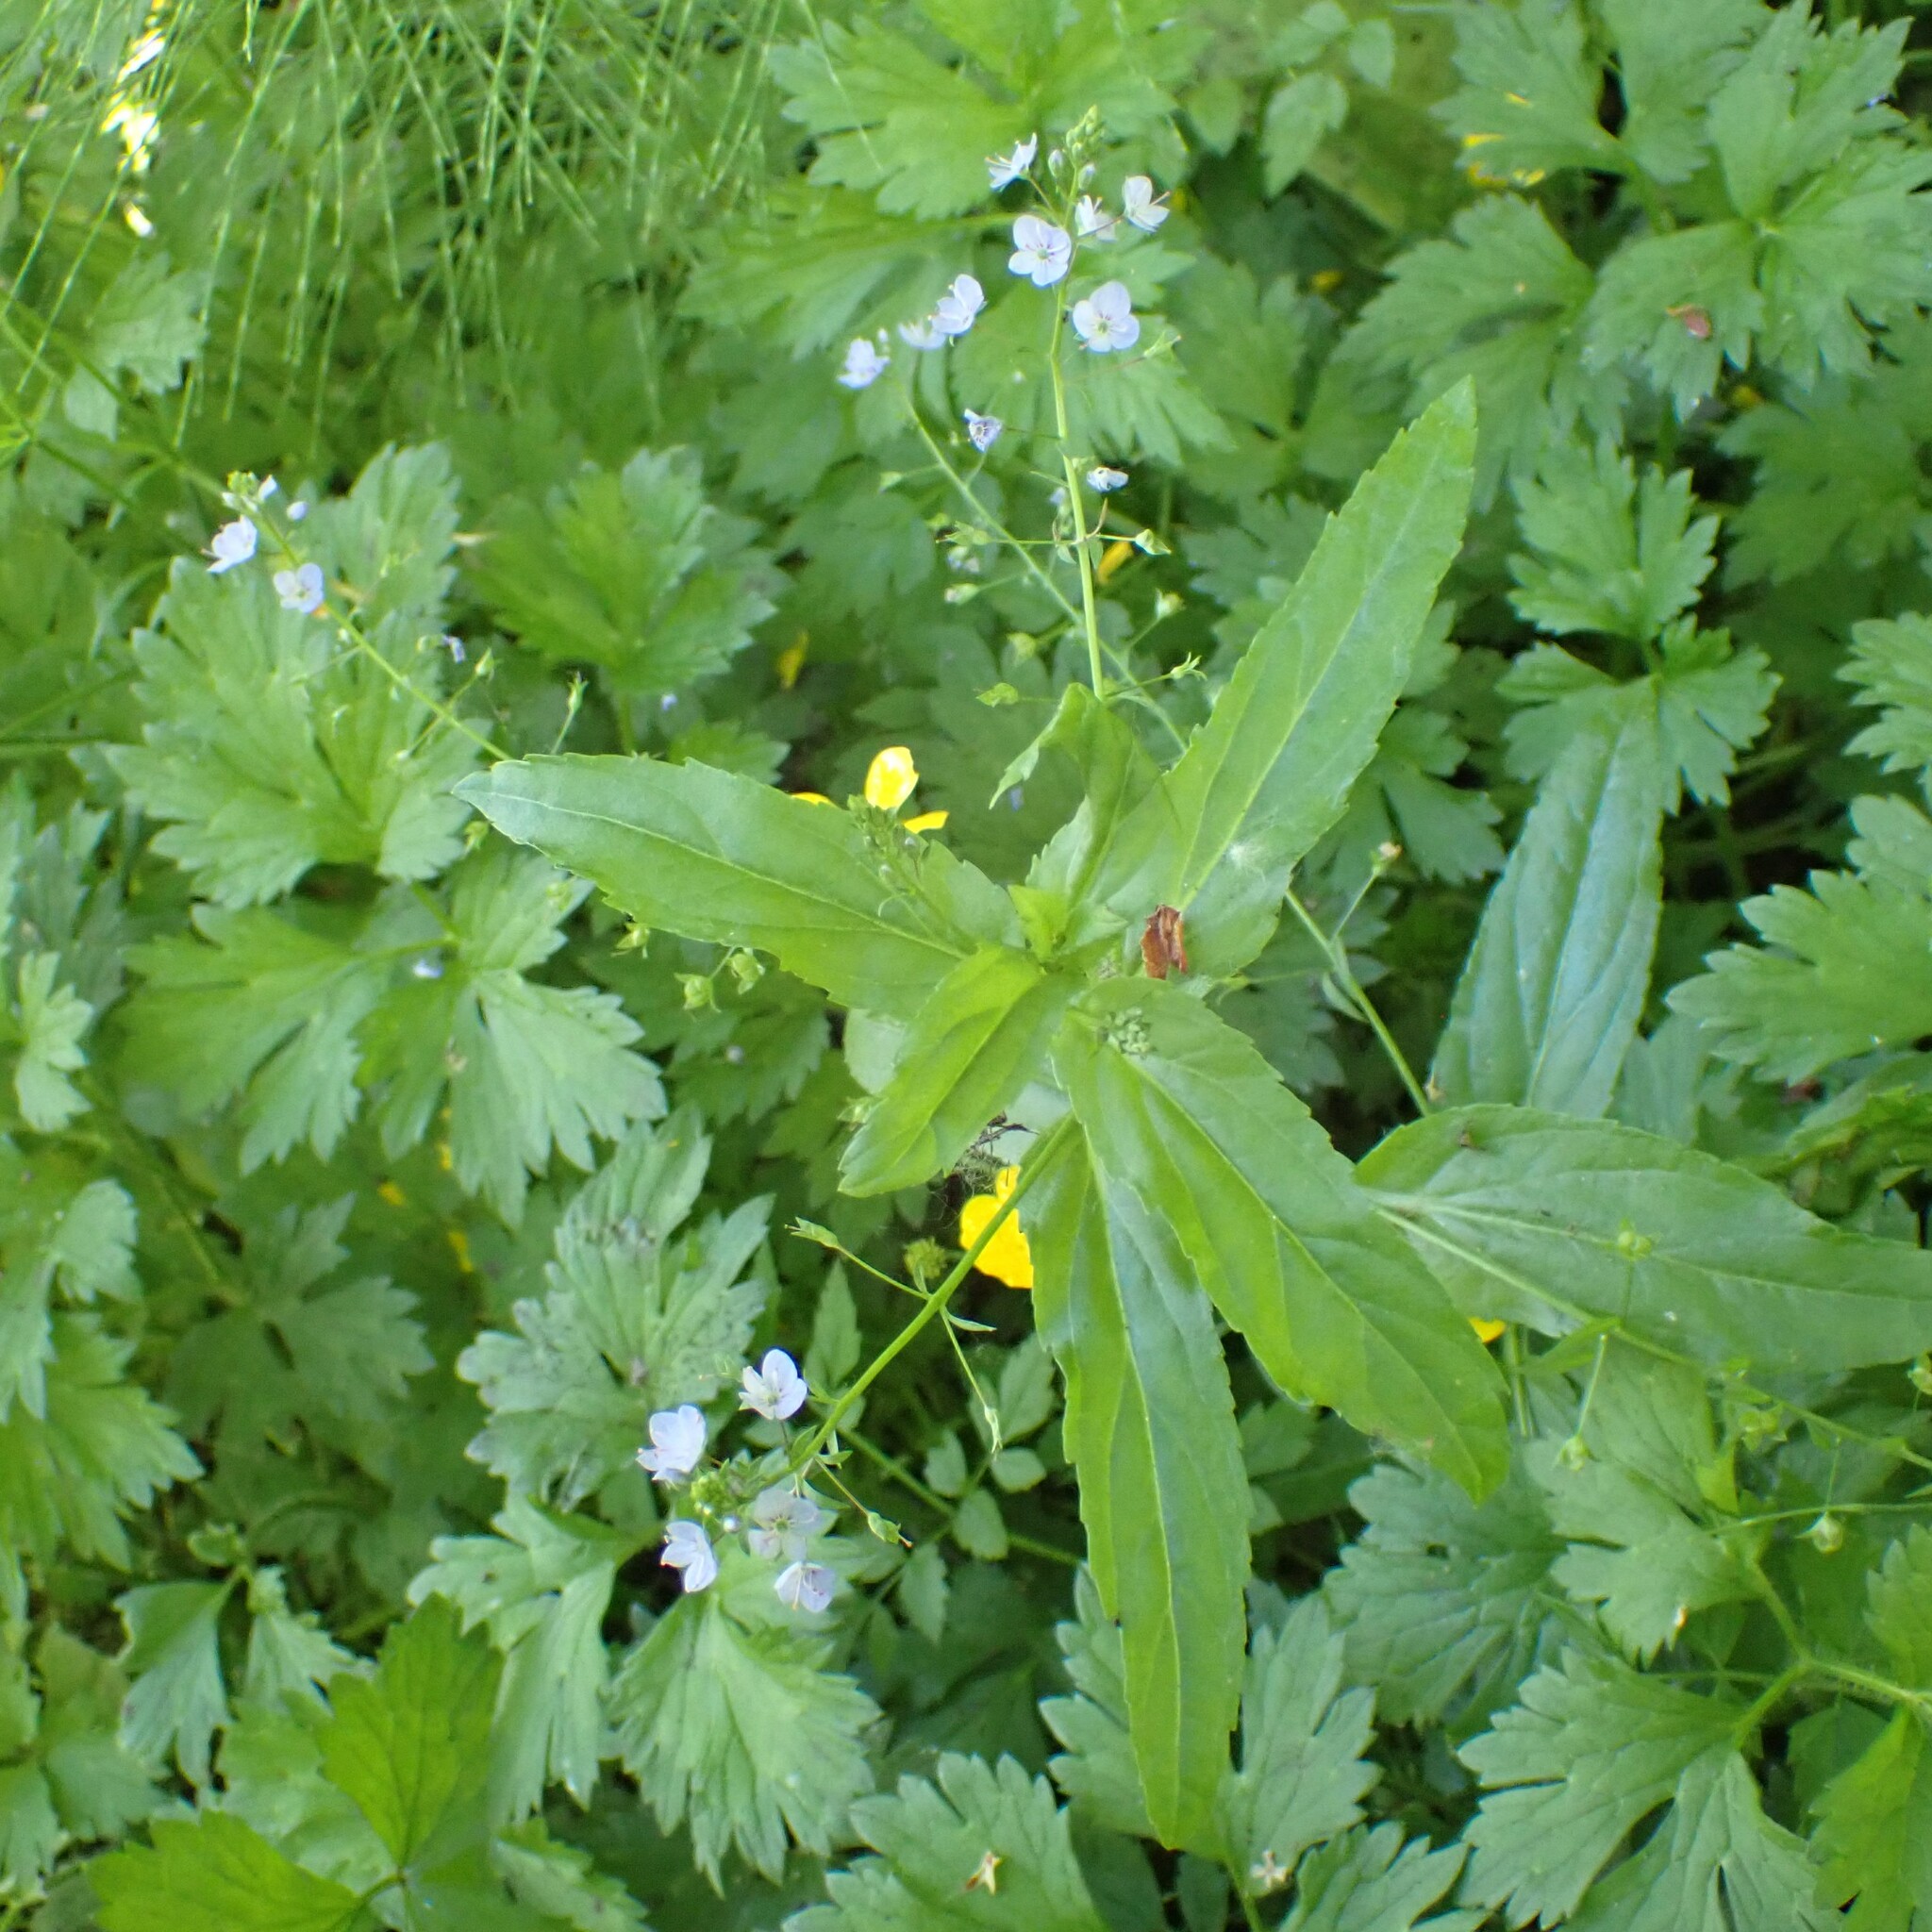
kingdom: Plantae
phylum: Tracheophyta
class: Magnoliopsida
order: Lamiales
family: Plantaginaceae
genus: Veronica
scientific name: Veronica americana
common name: American brooklime
